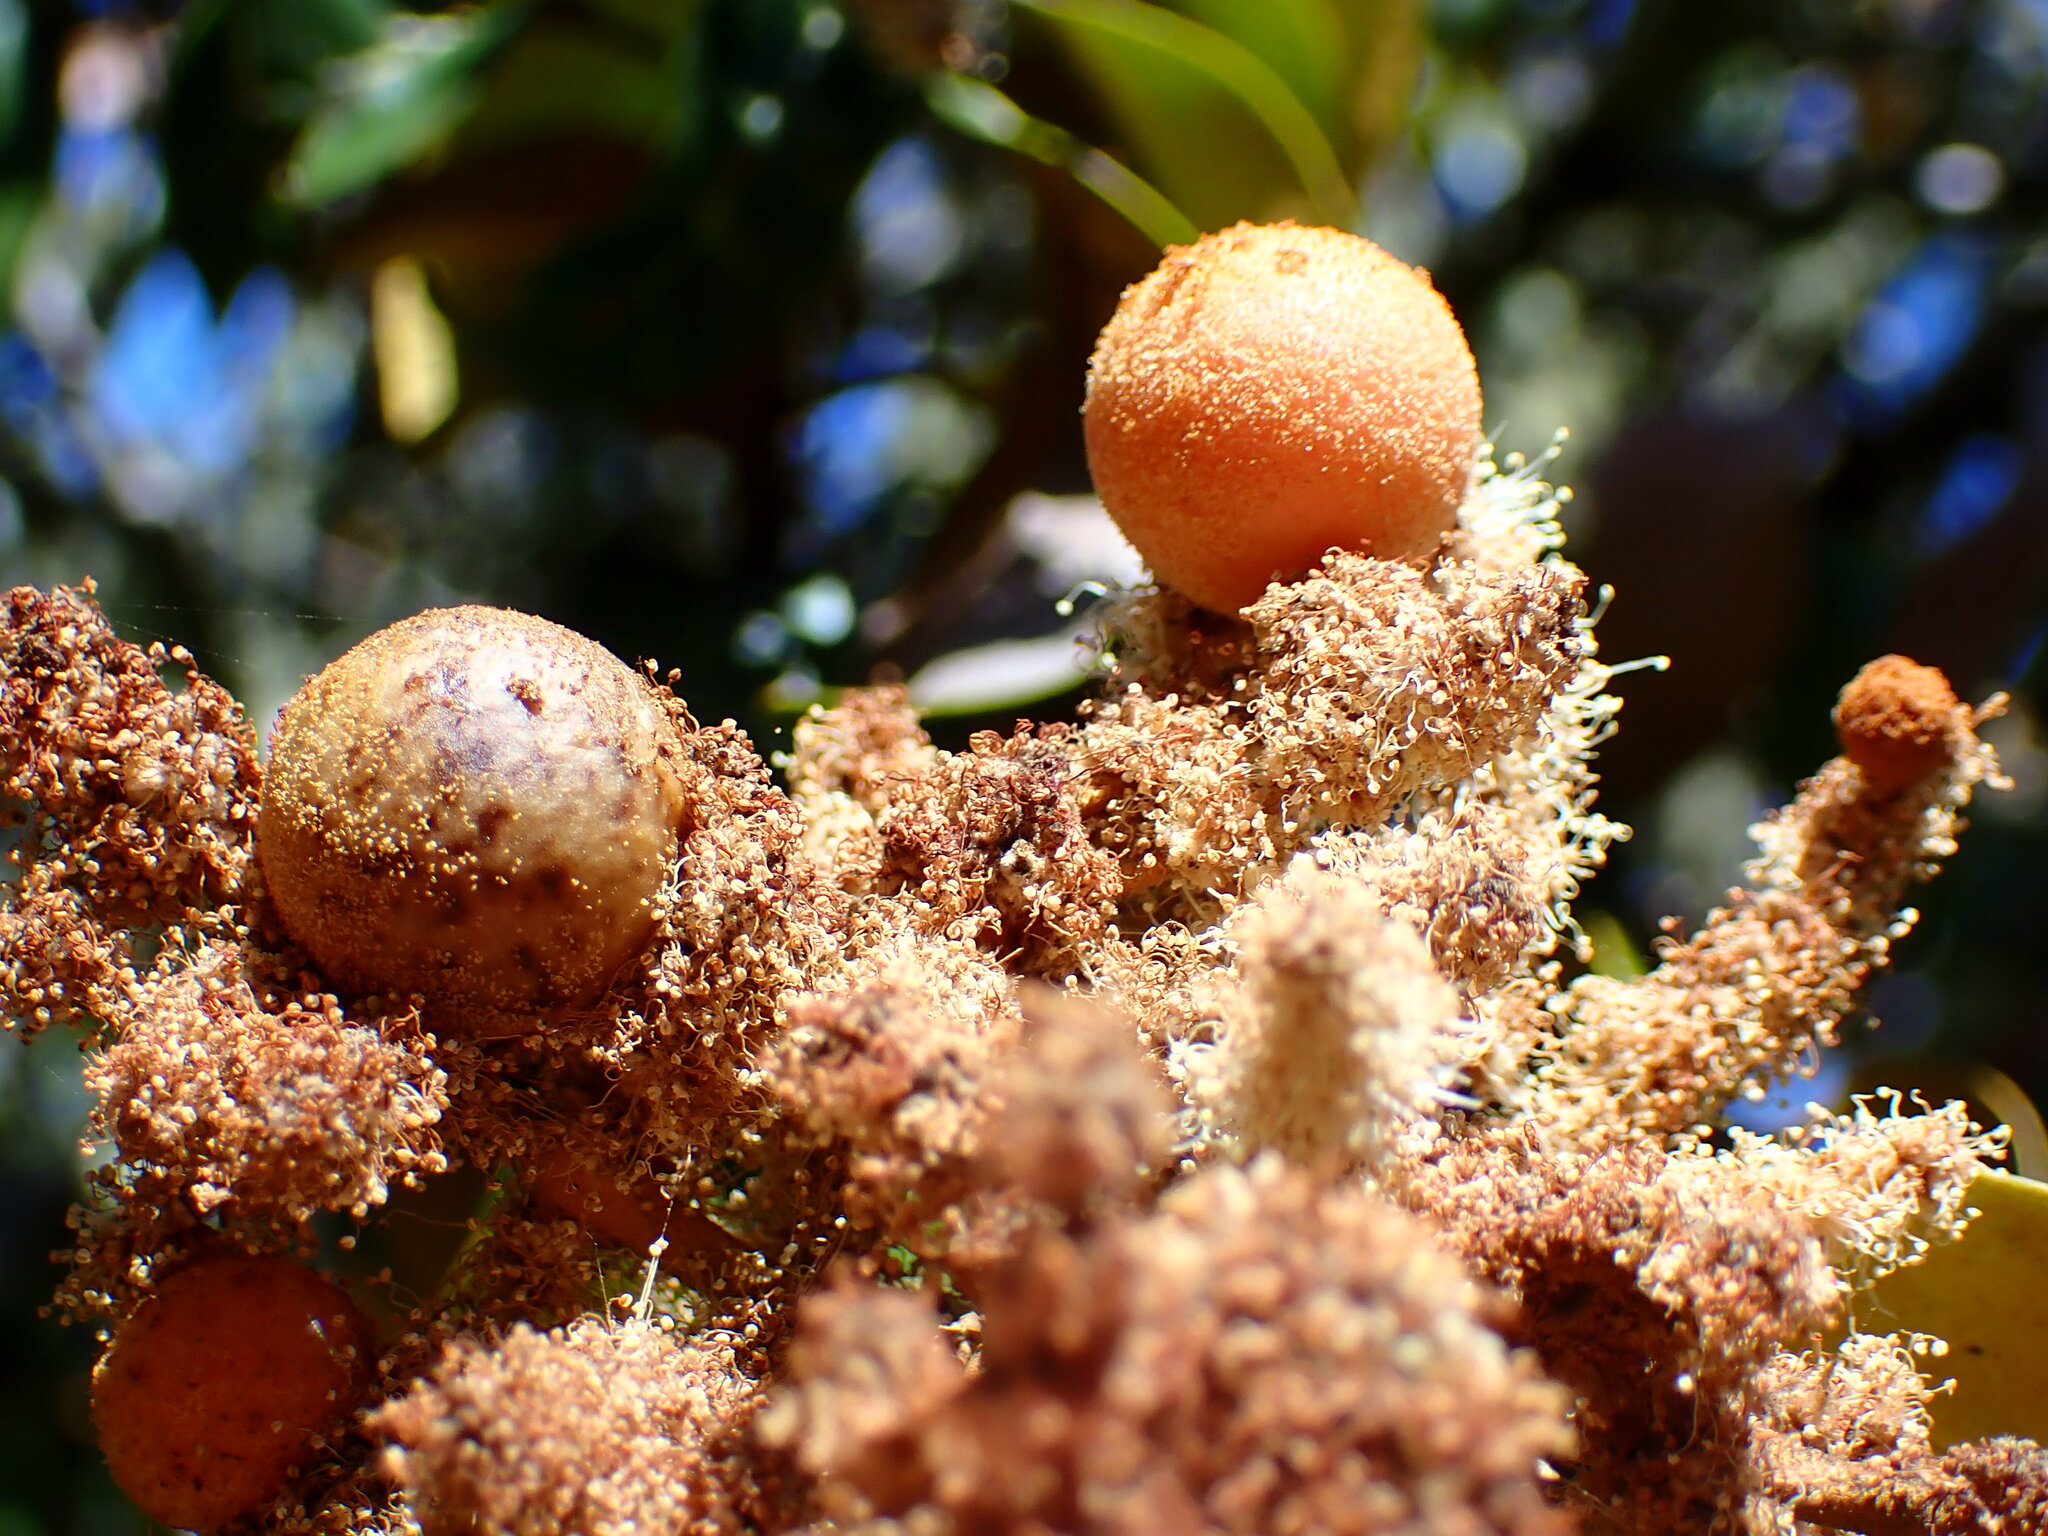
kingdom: Animalia
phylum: Arthropoda
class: Insecta
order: Hymenoptera
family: Cynipidae
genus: Synergus
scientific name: Synergus castanopsidis
